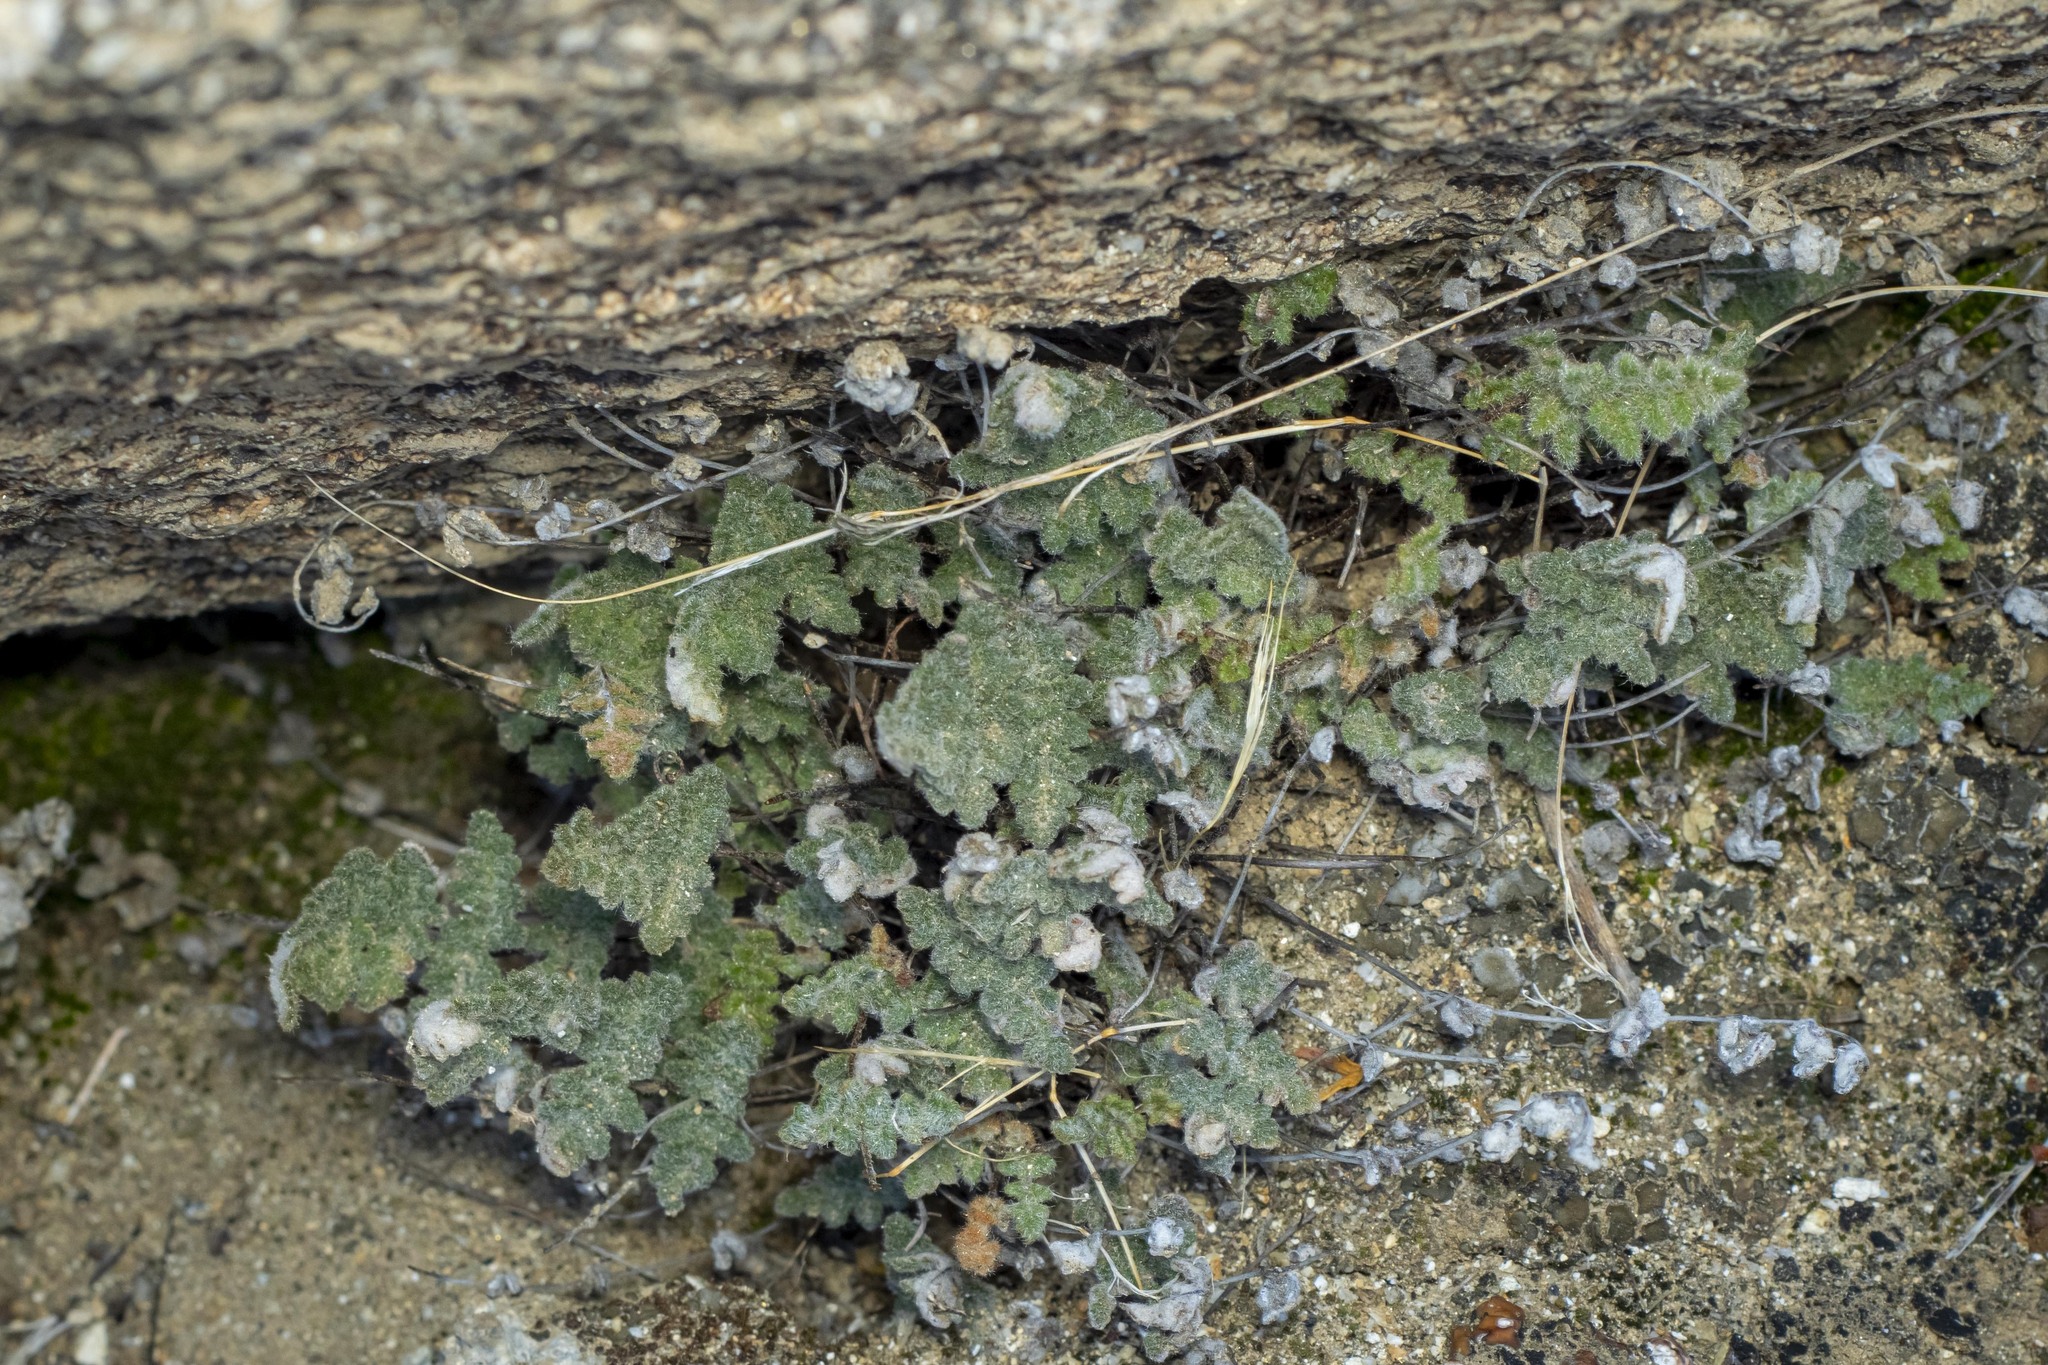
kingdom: Plantae
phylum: Tracheophyta
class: Polypodiopsida
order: Polypodiales
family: Pteridaceae
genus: Myriopteris
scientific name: Myriopteris parryi
